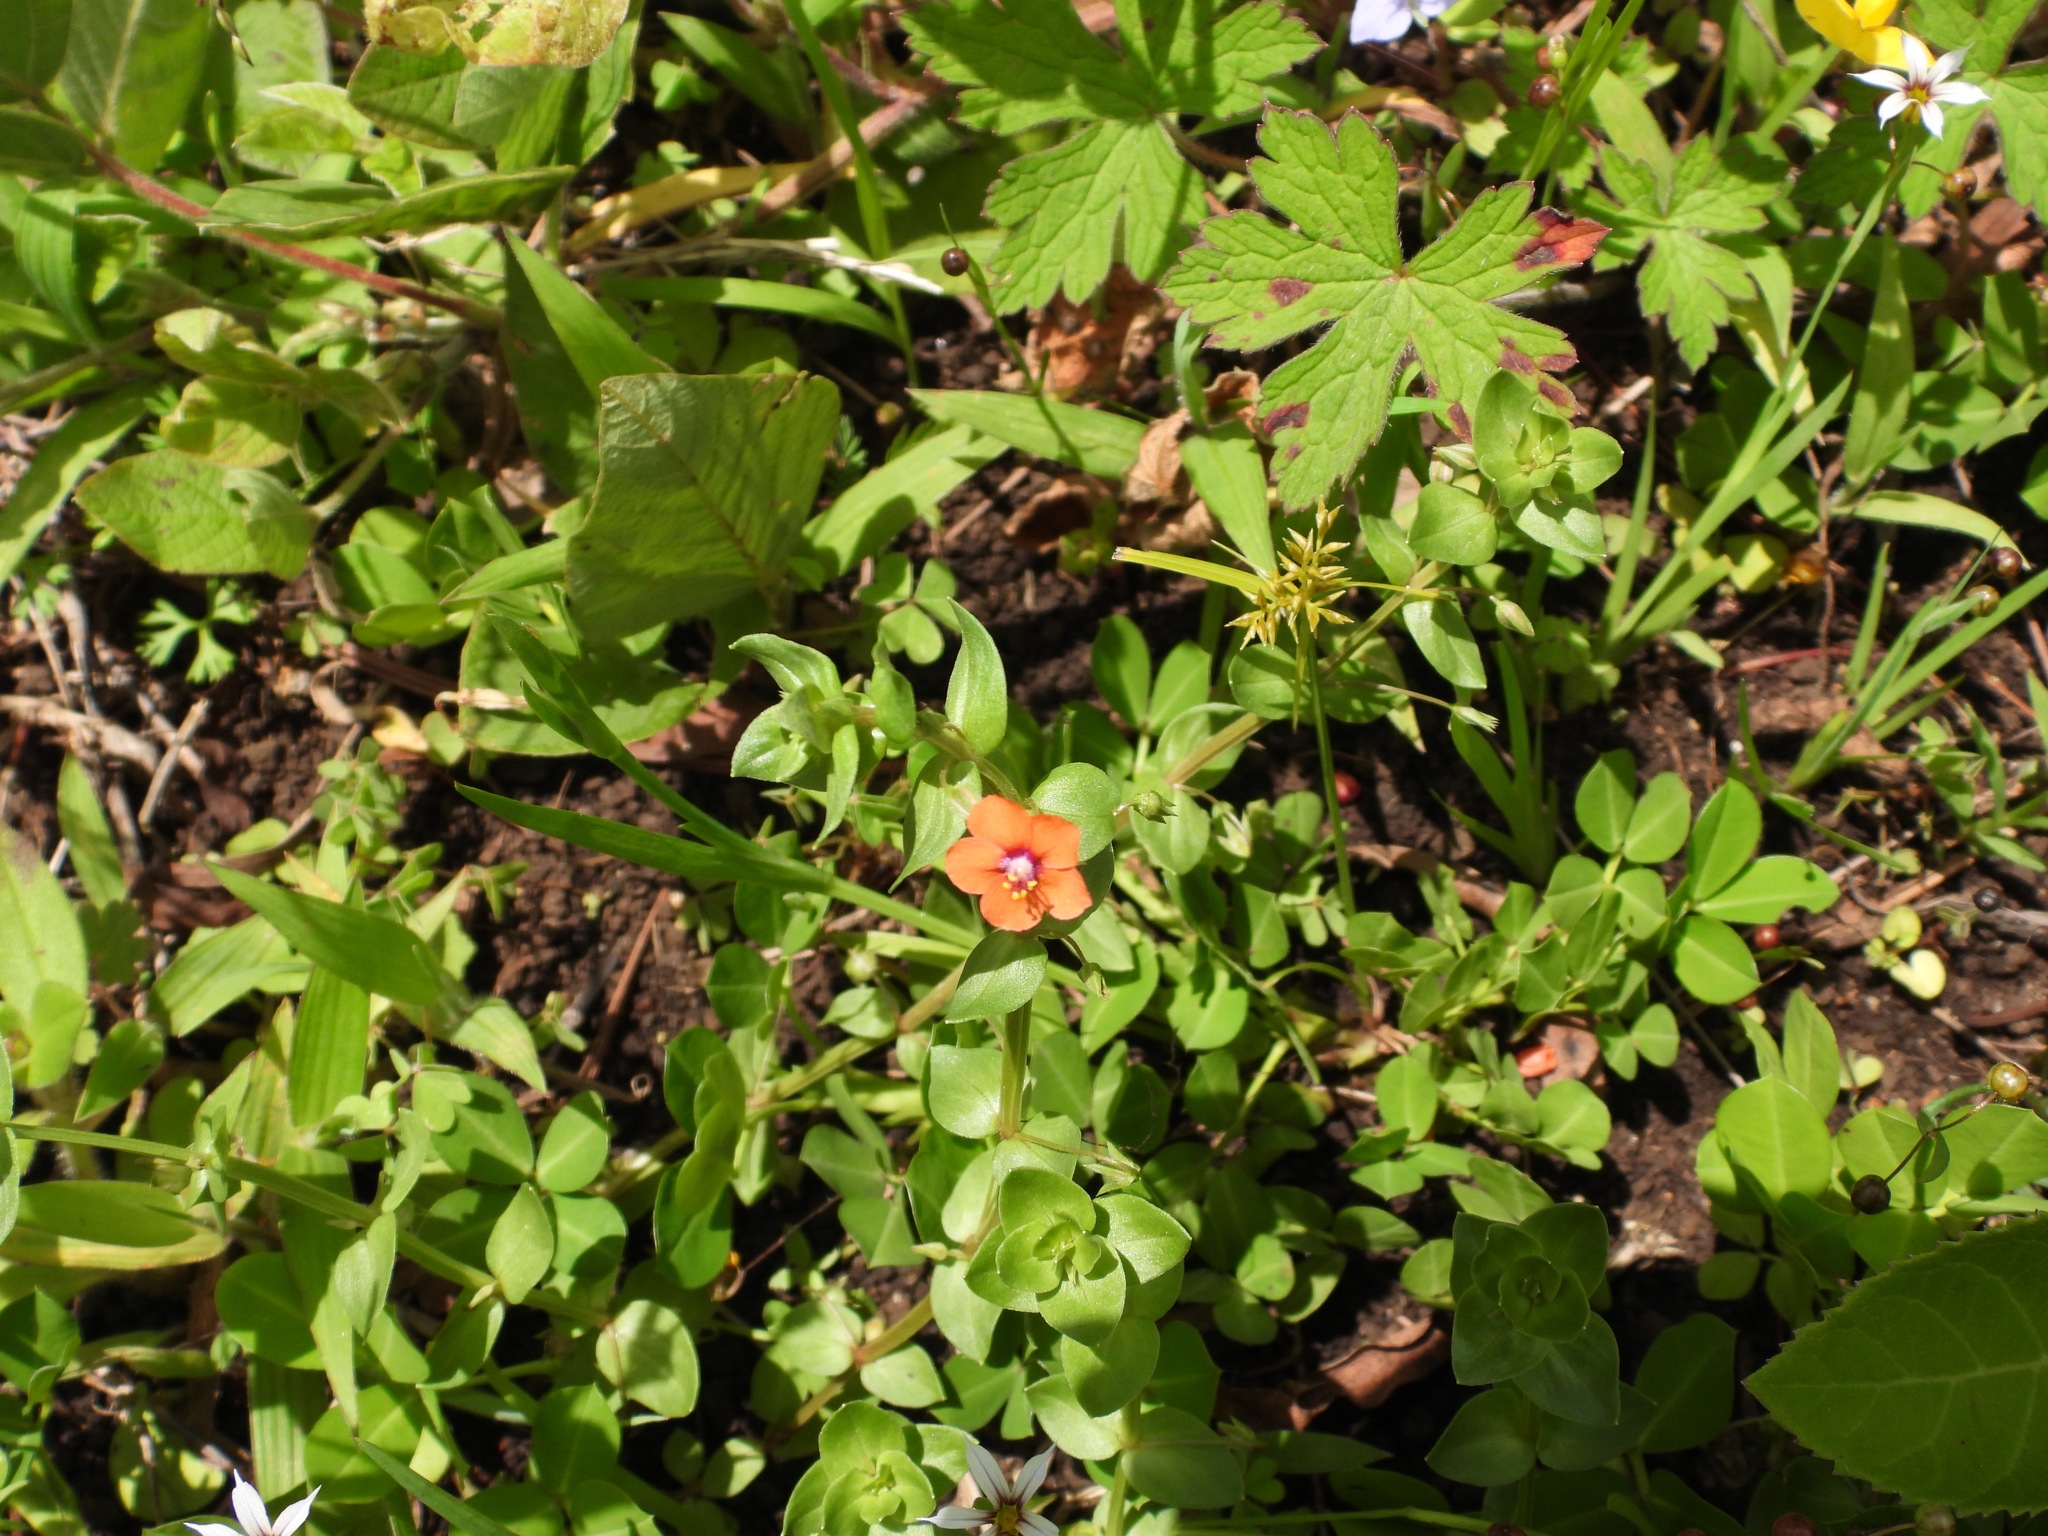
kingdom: Plantae
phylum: Tracheophyta
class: Magnoliopsida
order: Ericales
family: Primulaceae
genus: Lysimachia
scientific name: Lysimachia arvensis
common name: Scarlet pimpernel
